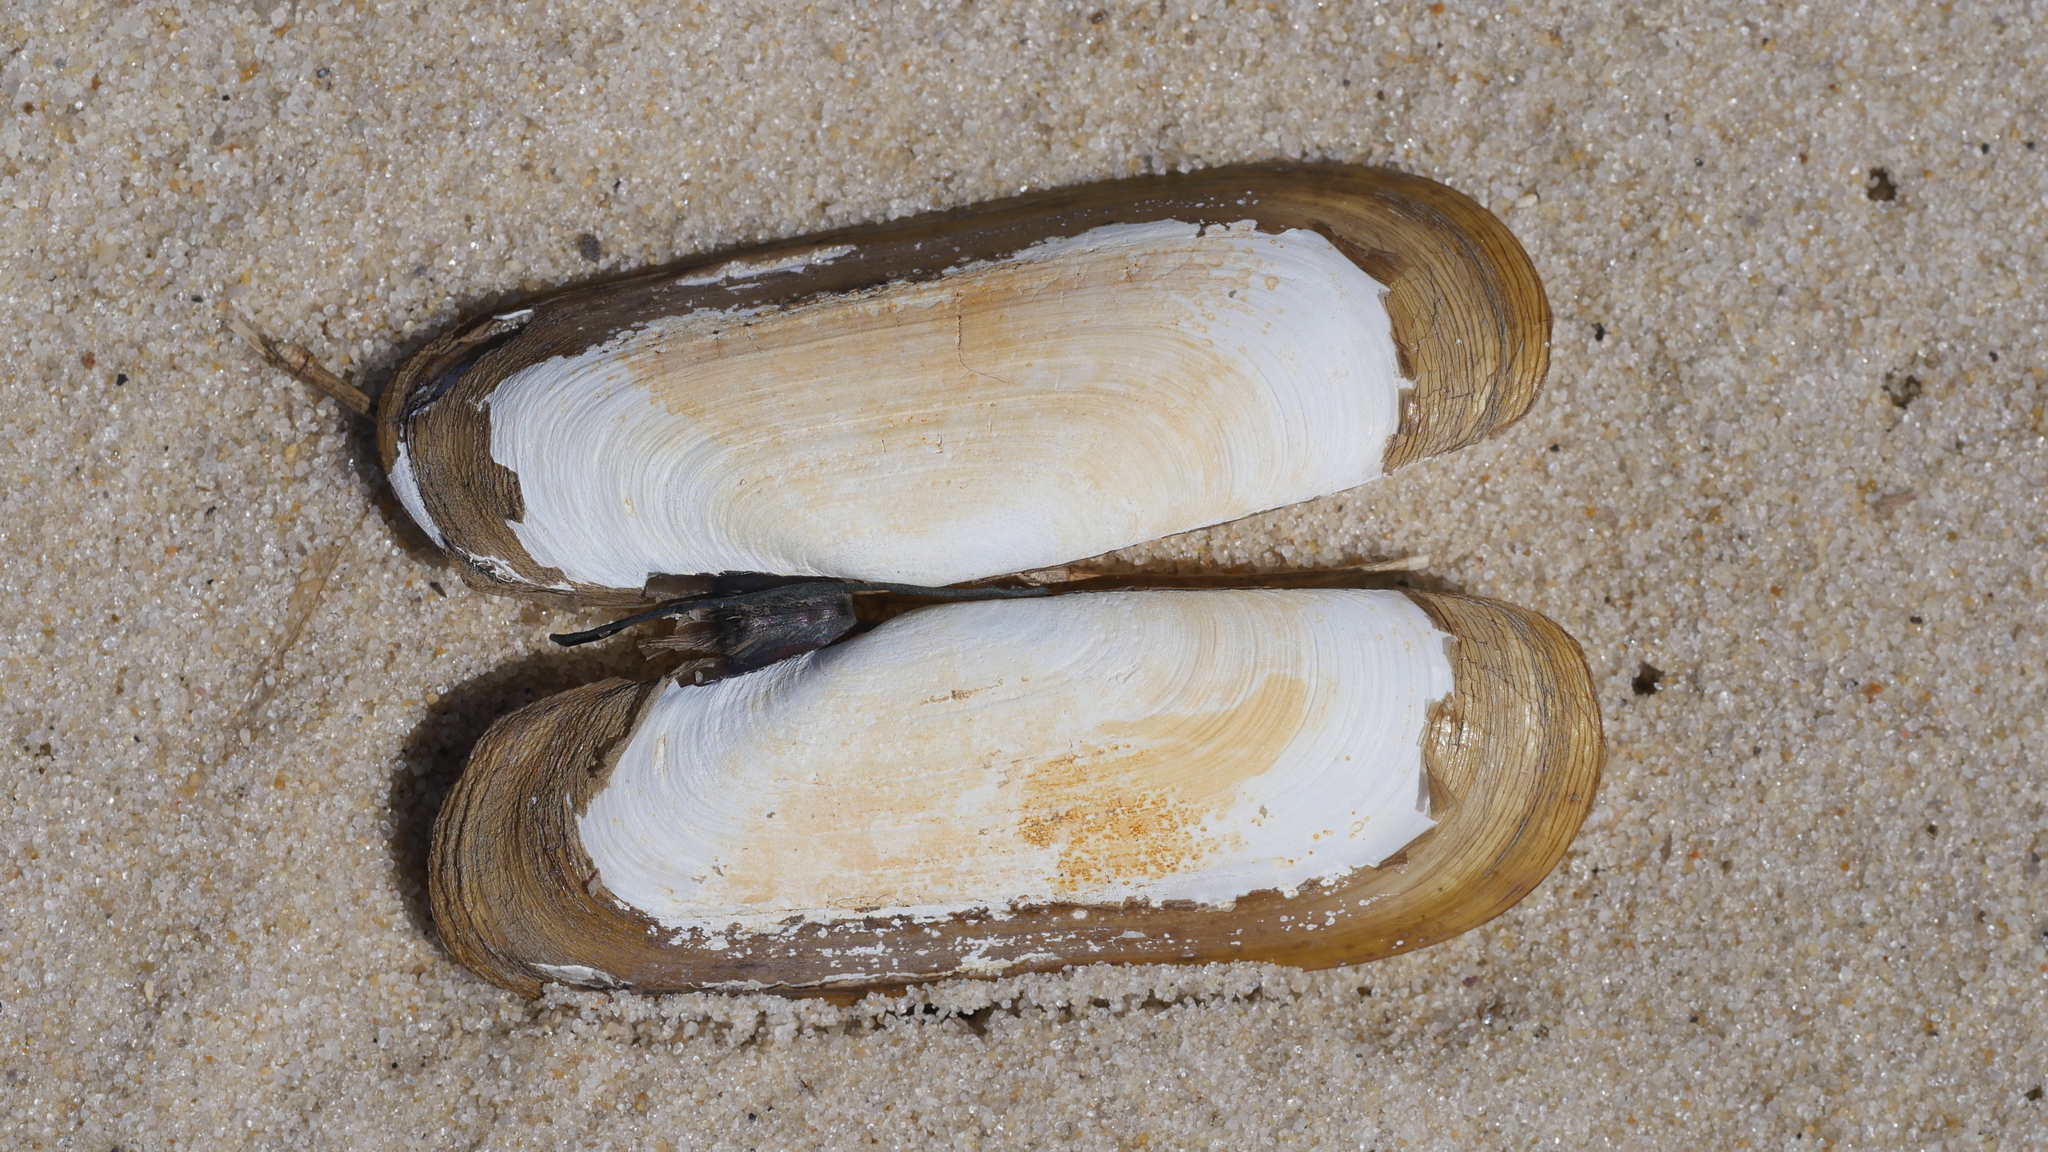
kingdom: Animalia
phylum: Mollusca
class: Bivalvia
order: Cardiida
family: Solecurtidae
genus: Tagelus
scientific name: Tagelus plebeius
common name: Stout tagelus
